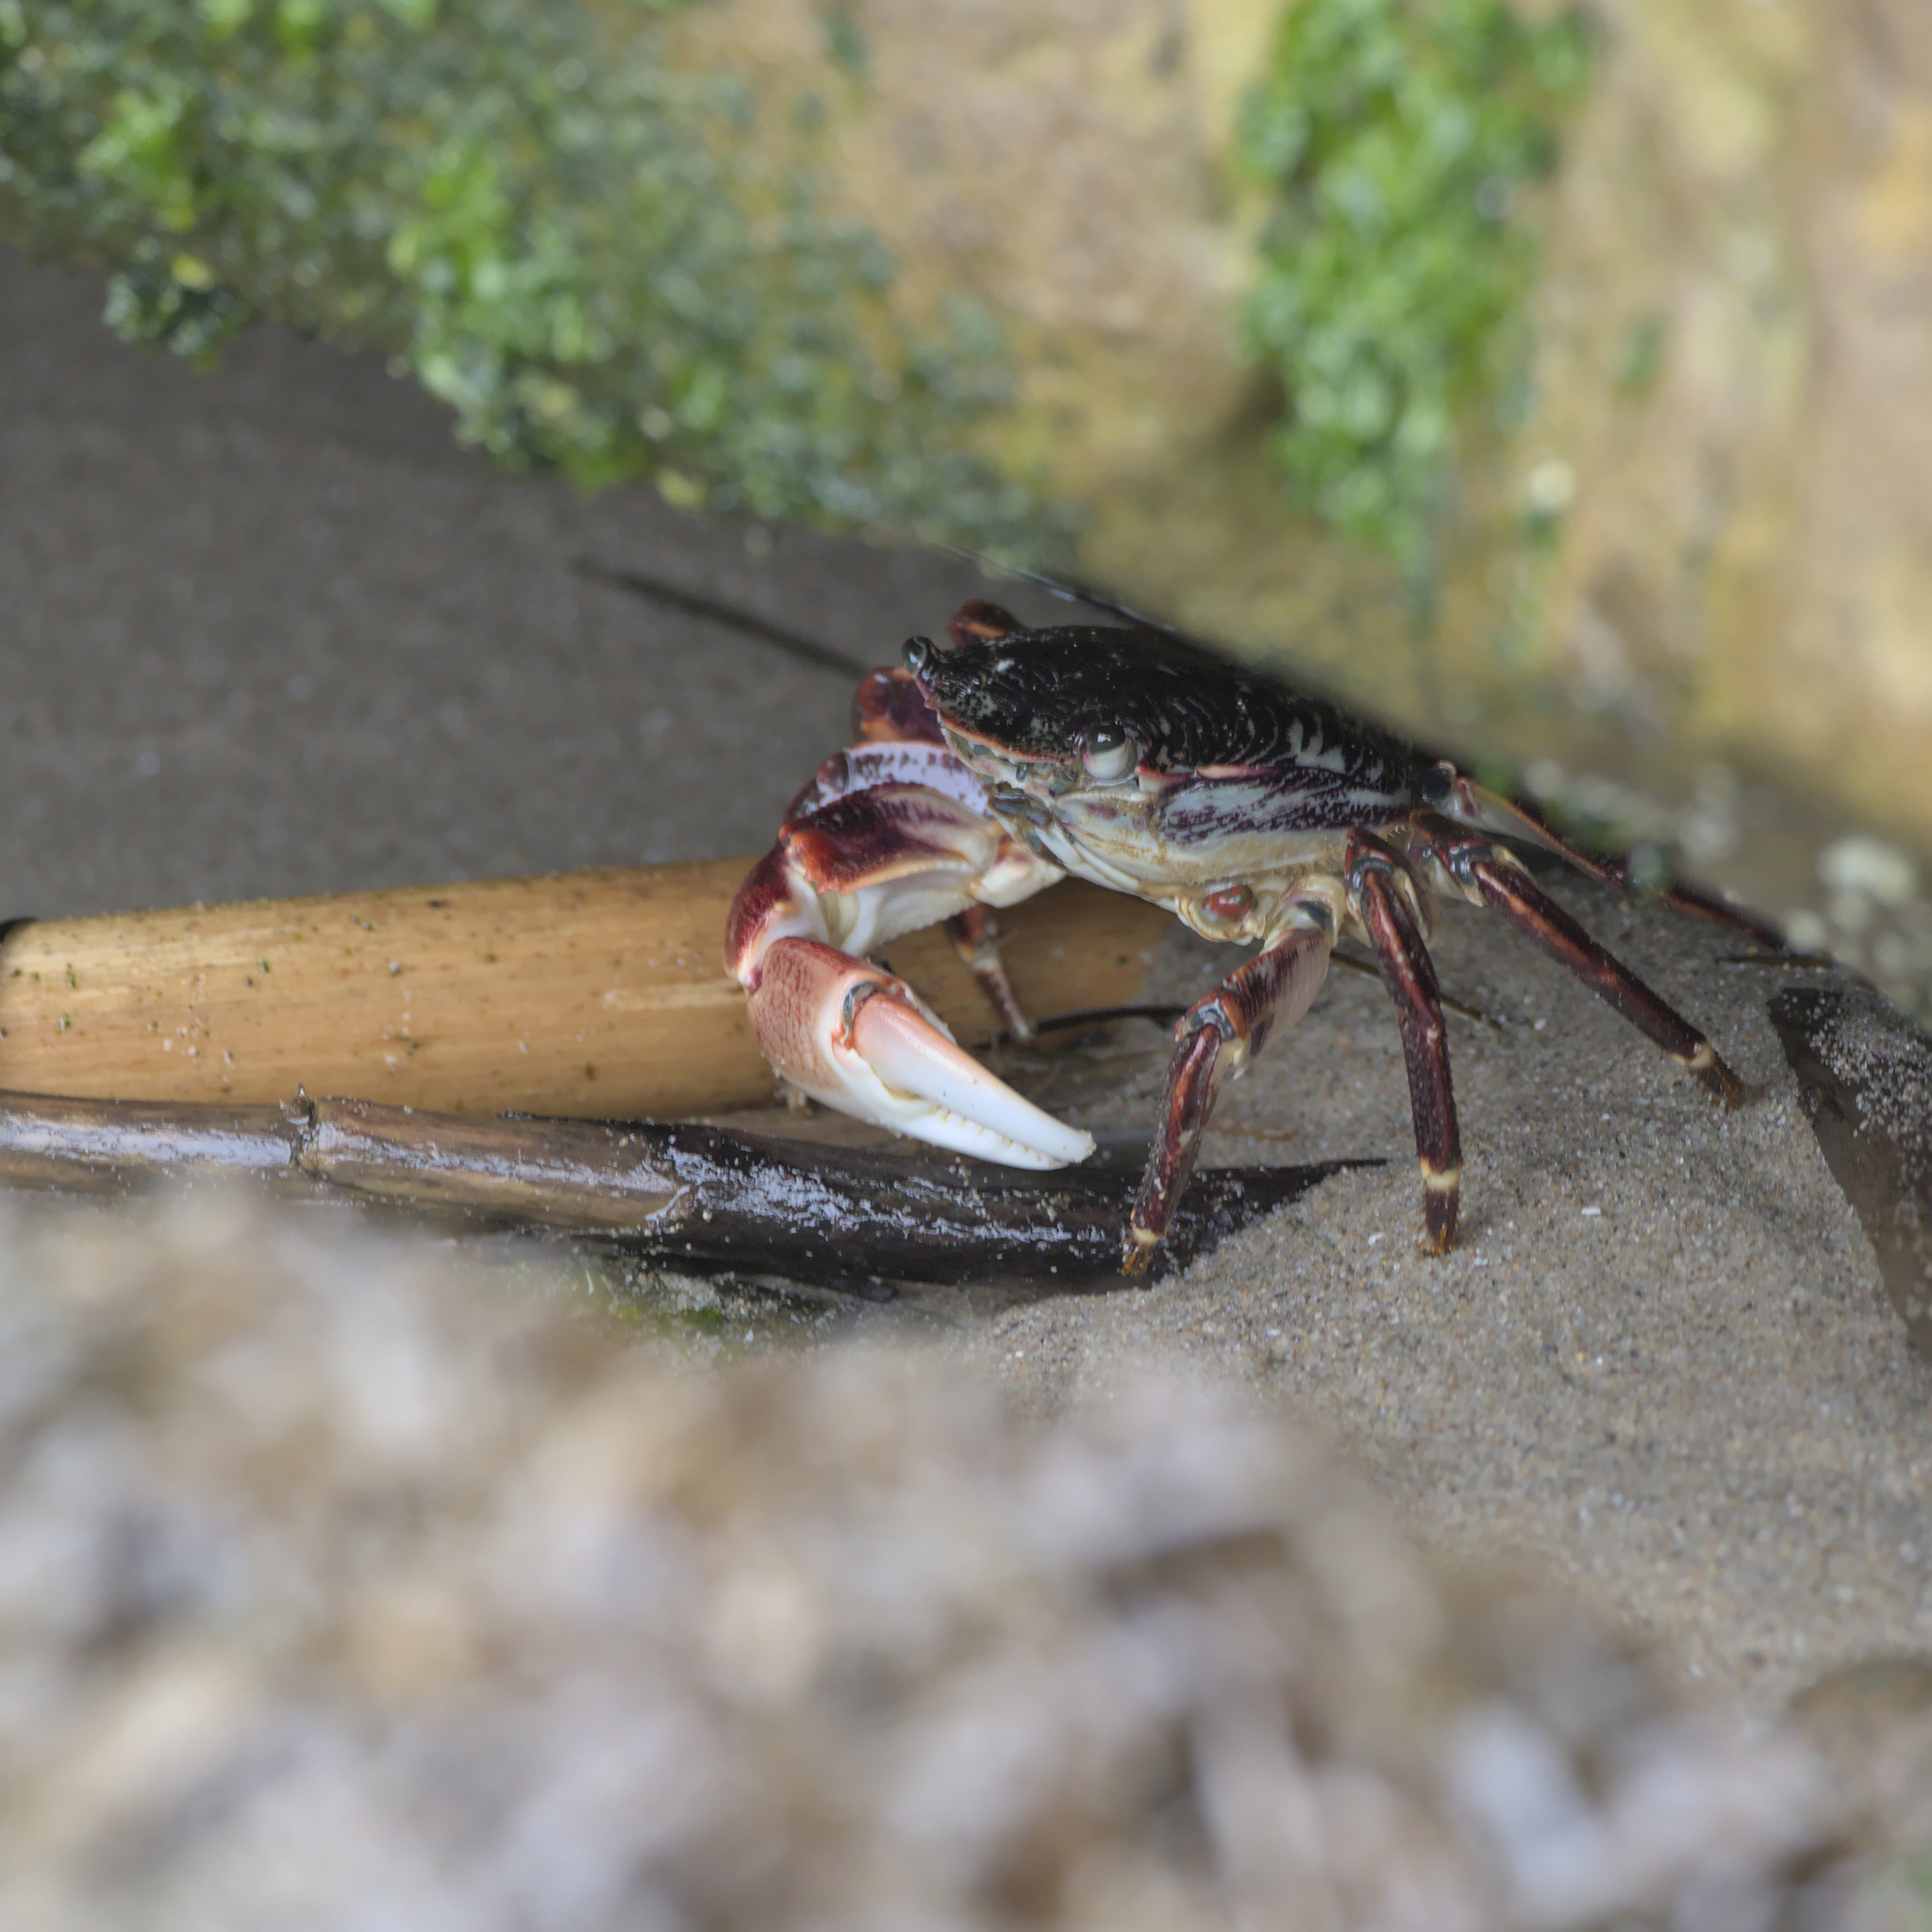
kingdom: Animalia
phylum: Arthropoda
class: Malacostraca
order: Decapoda
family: Grapsidae
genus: Pachygrapsus
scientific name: Pachygrapsus crassipes
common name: Striped shore crab
